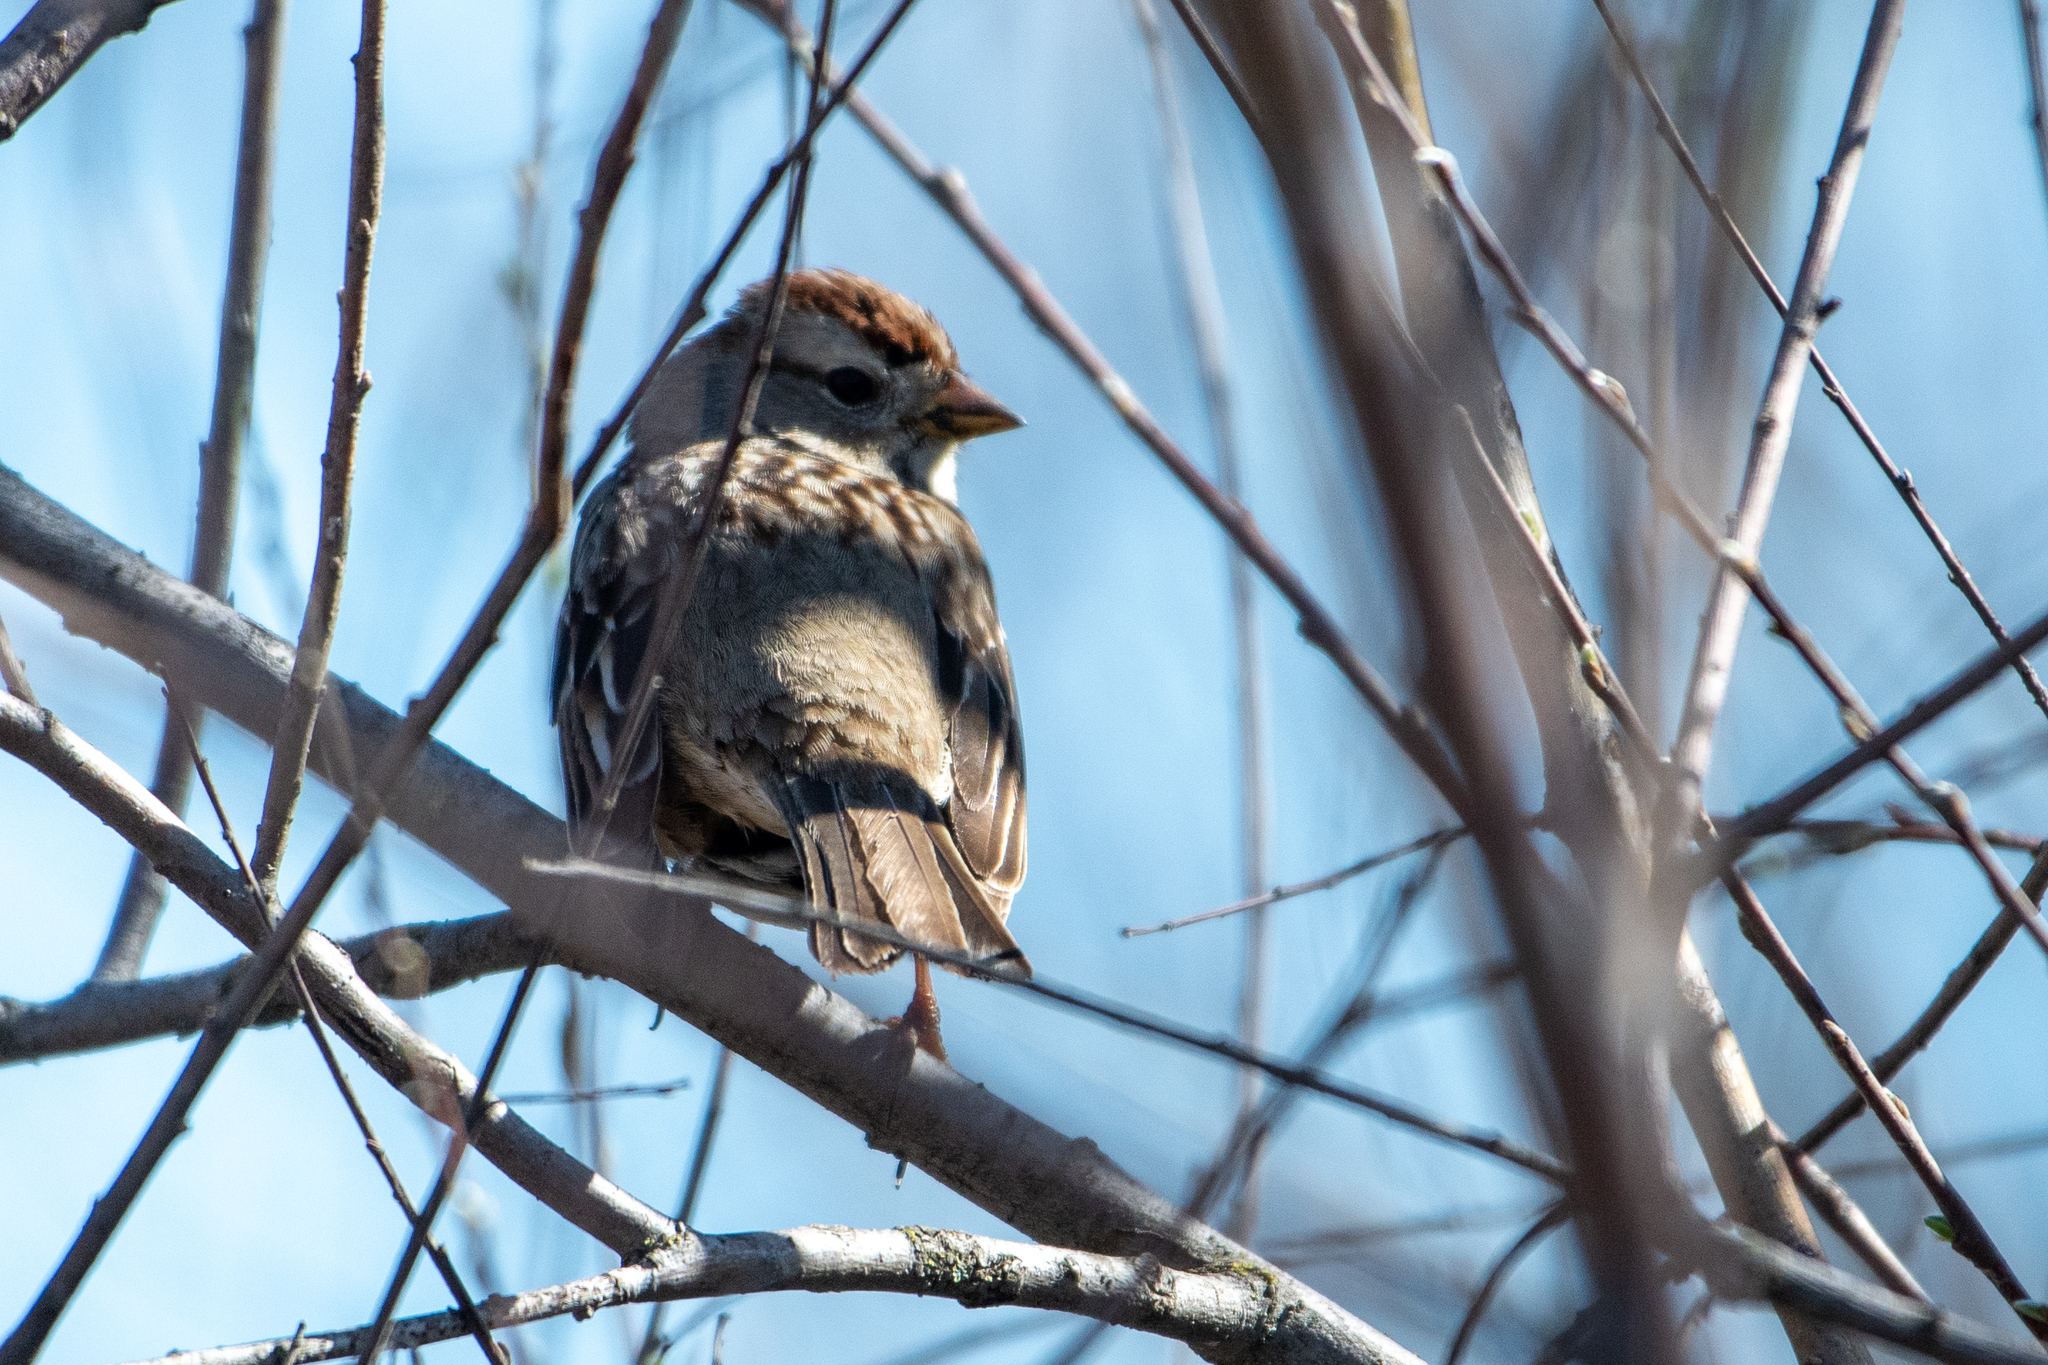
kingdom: Animalia
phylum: Chordata
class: Aves
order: Passeriformes
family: Passerellidae
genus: Zonotrichia
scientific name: Zonotrichia leucophrys
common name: White-crowned sparrow
